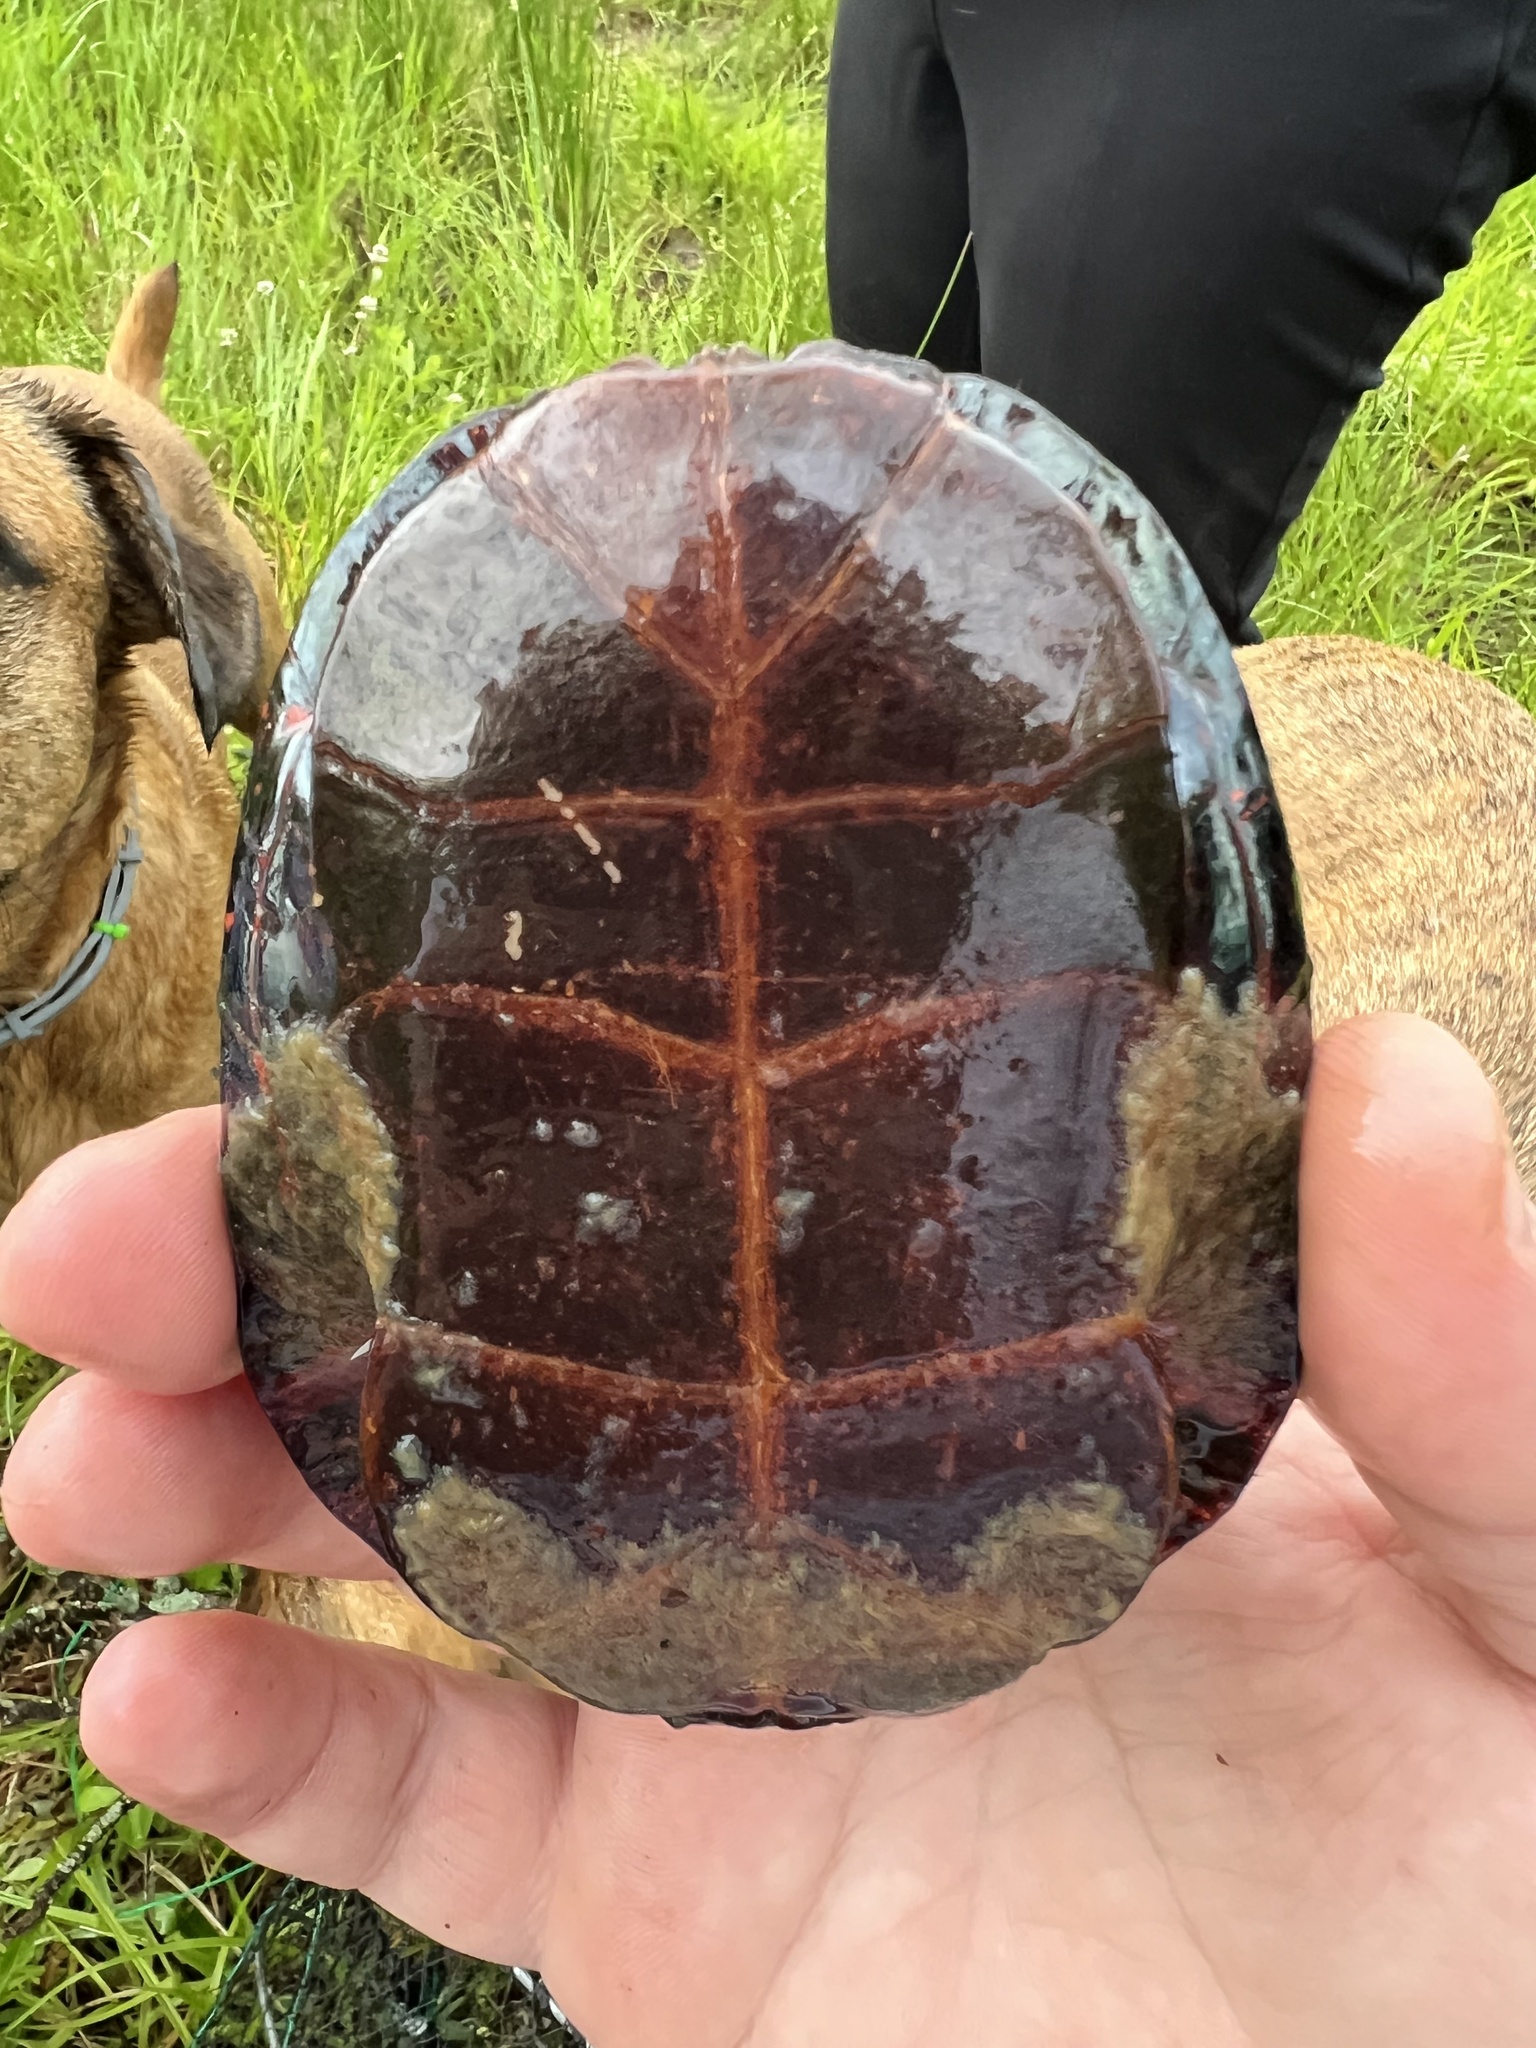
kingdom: Animalia
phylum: Chordata
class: Testudines
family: Emydidae
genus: Chrysemys
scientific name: Chrysemys picta
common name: Painted turtle
